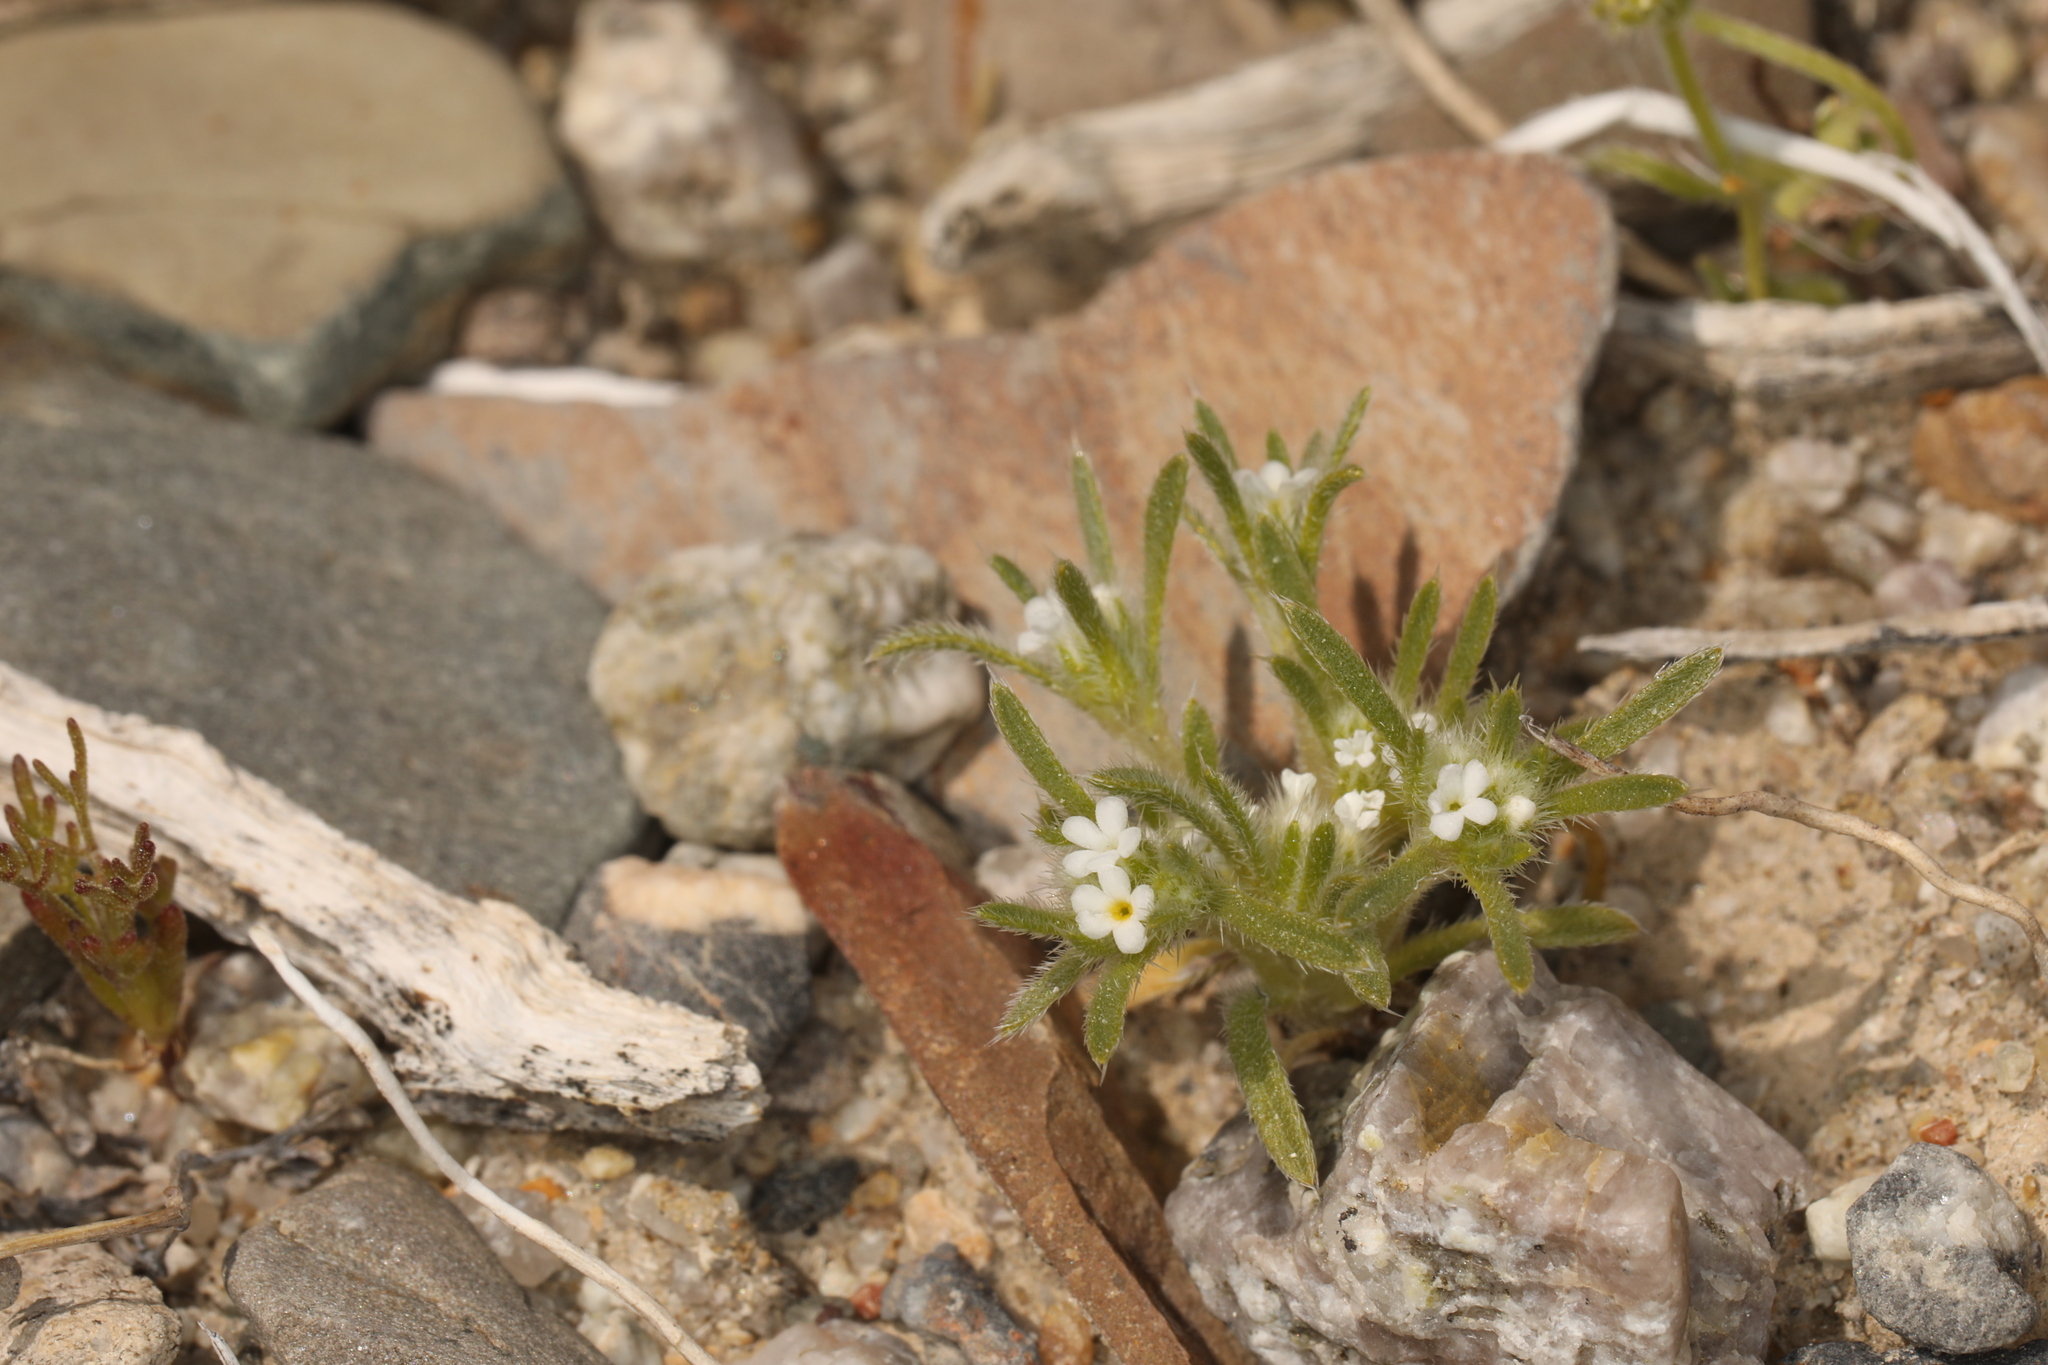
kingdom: Plantae
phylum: Tracheophyta
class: Magnoliopsida
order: Boraginales
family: Boraginaceae
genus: Greeneocharis
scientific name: Greeneocharis circumscissa
